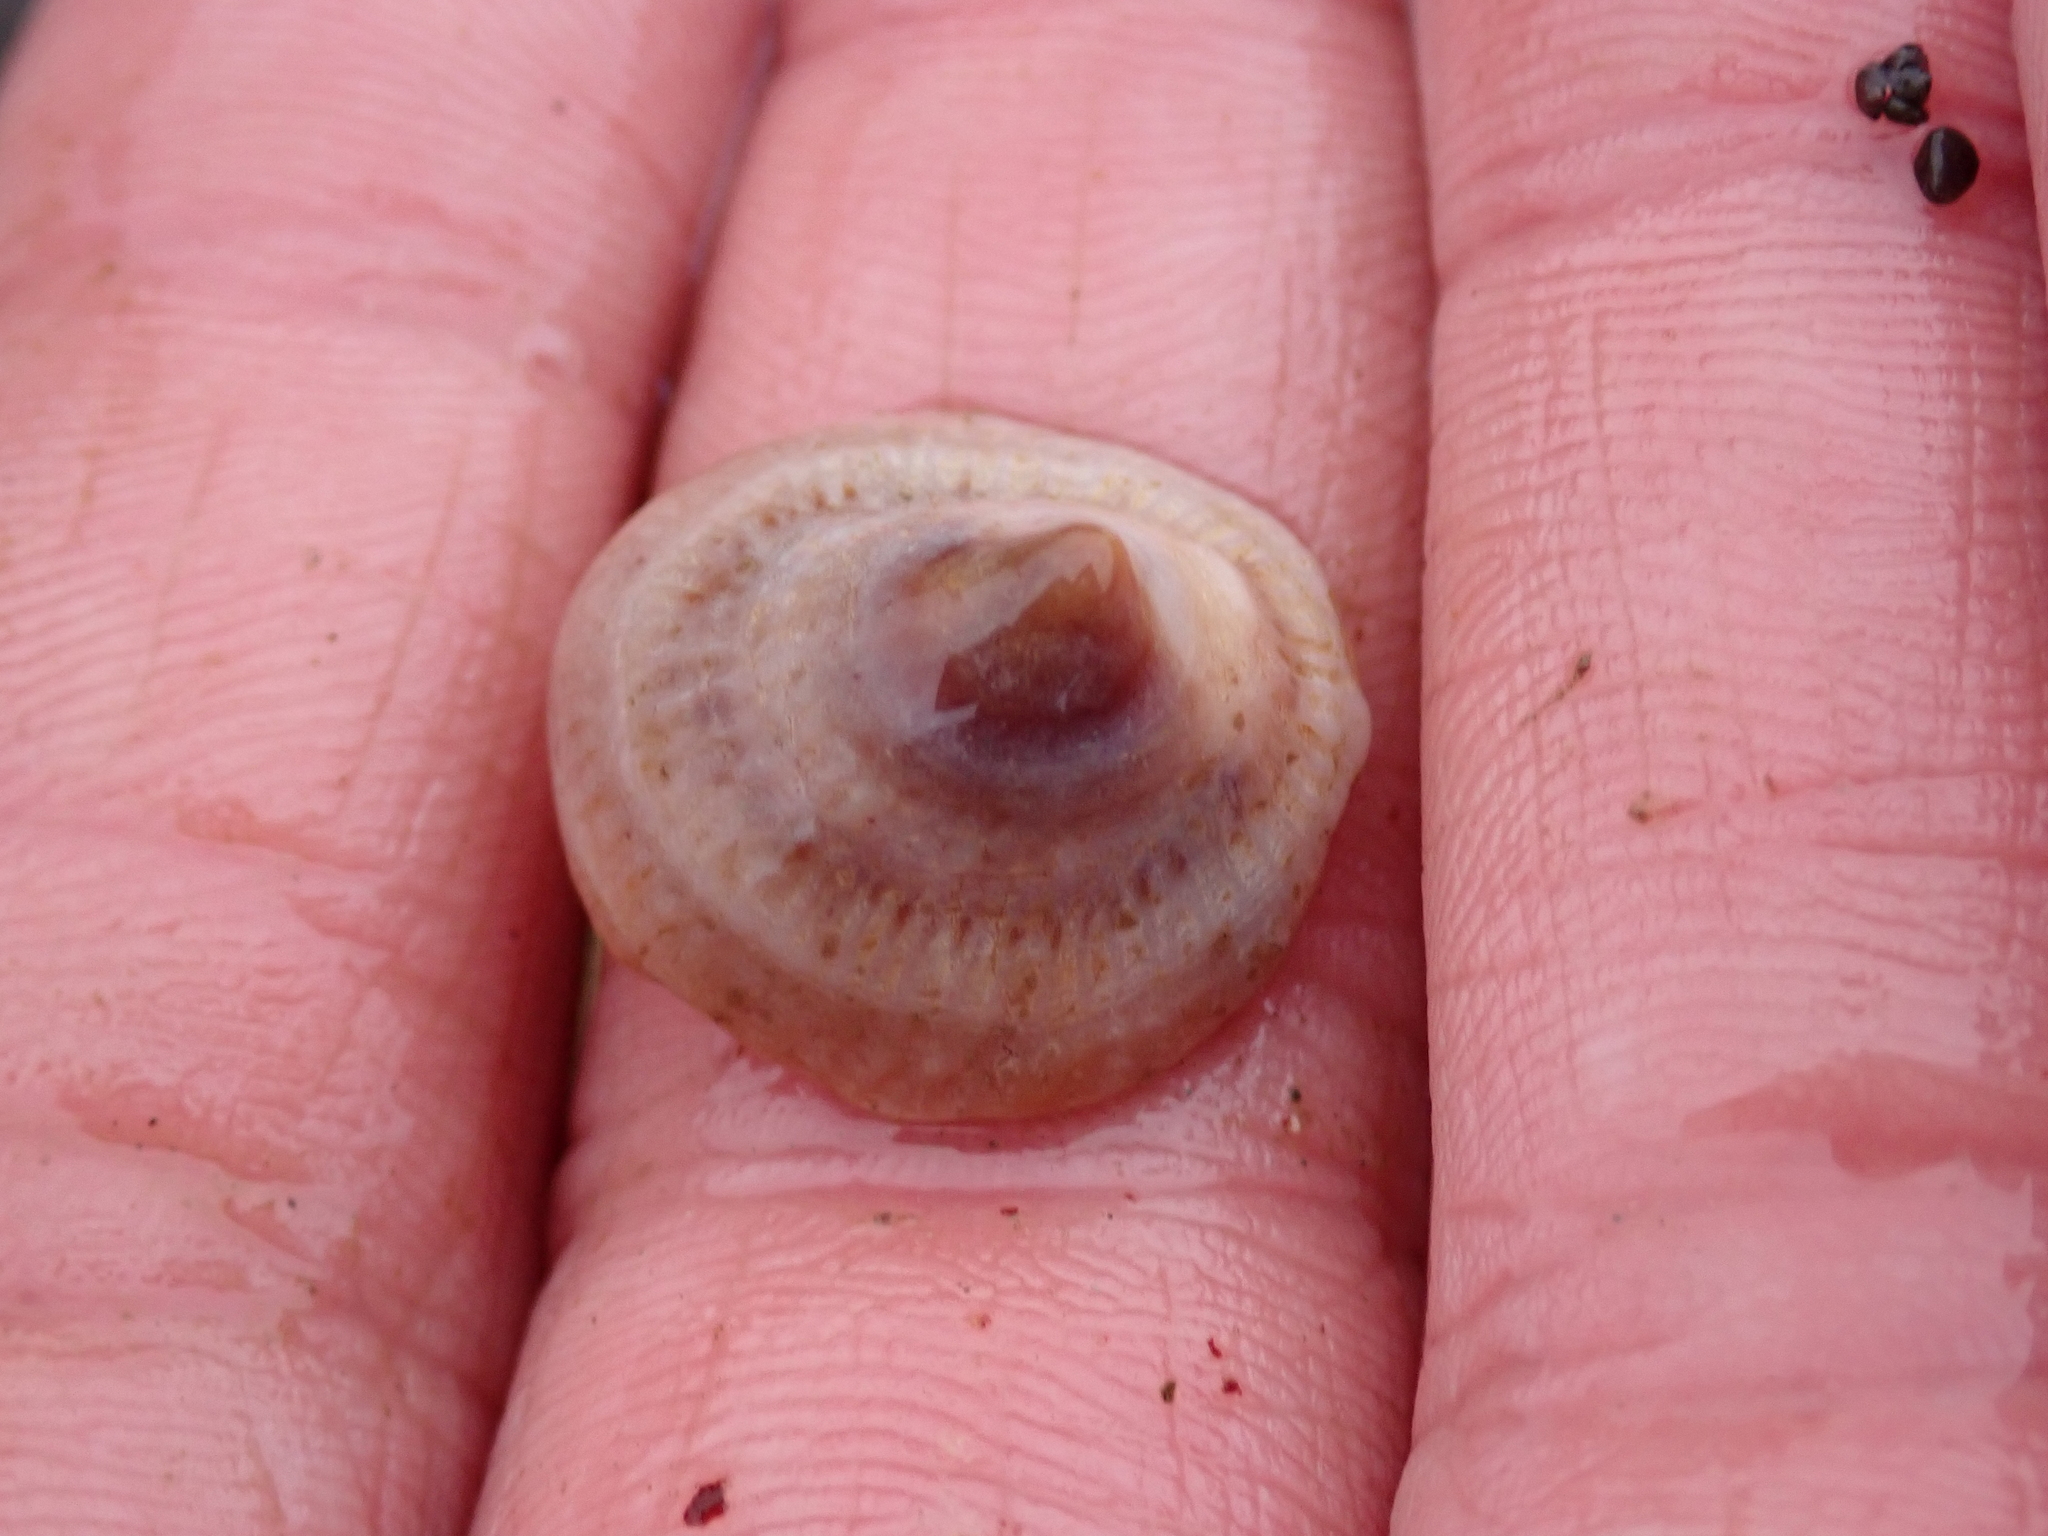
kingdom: Animalia
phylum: Mollusca
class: Gastropoda
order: Littorinimorpha
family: Calyptraeidae
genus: Crucibulum
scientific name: Crucibulum striatum
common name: Striate cup-and -saucer
